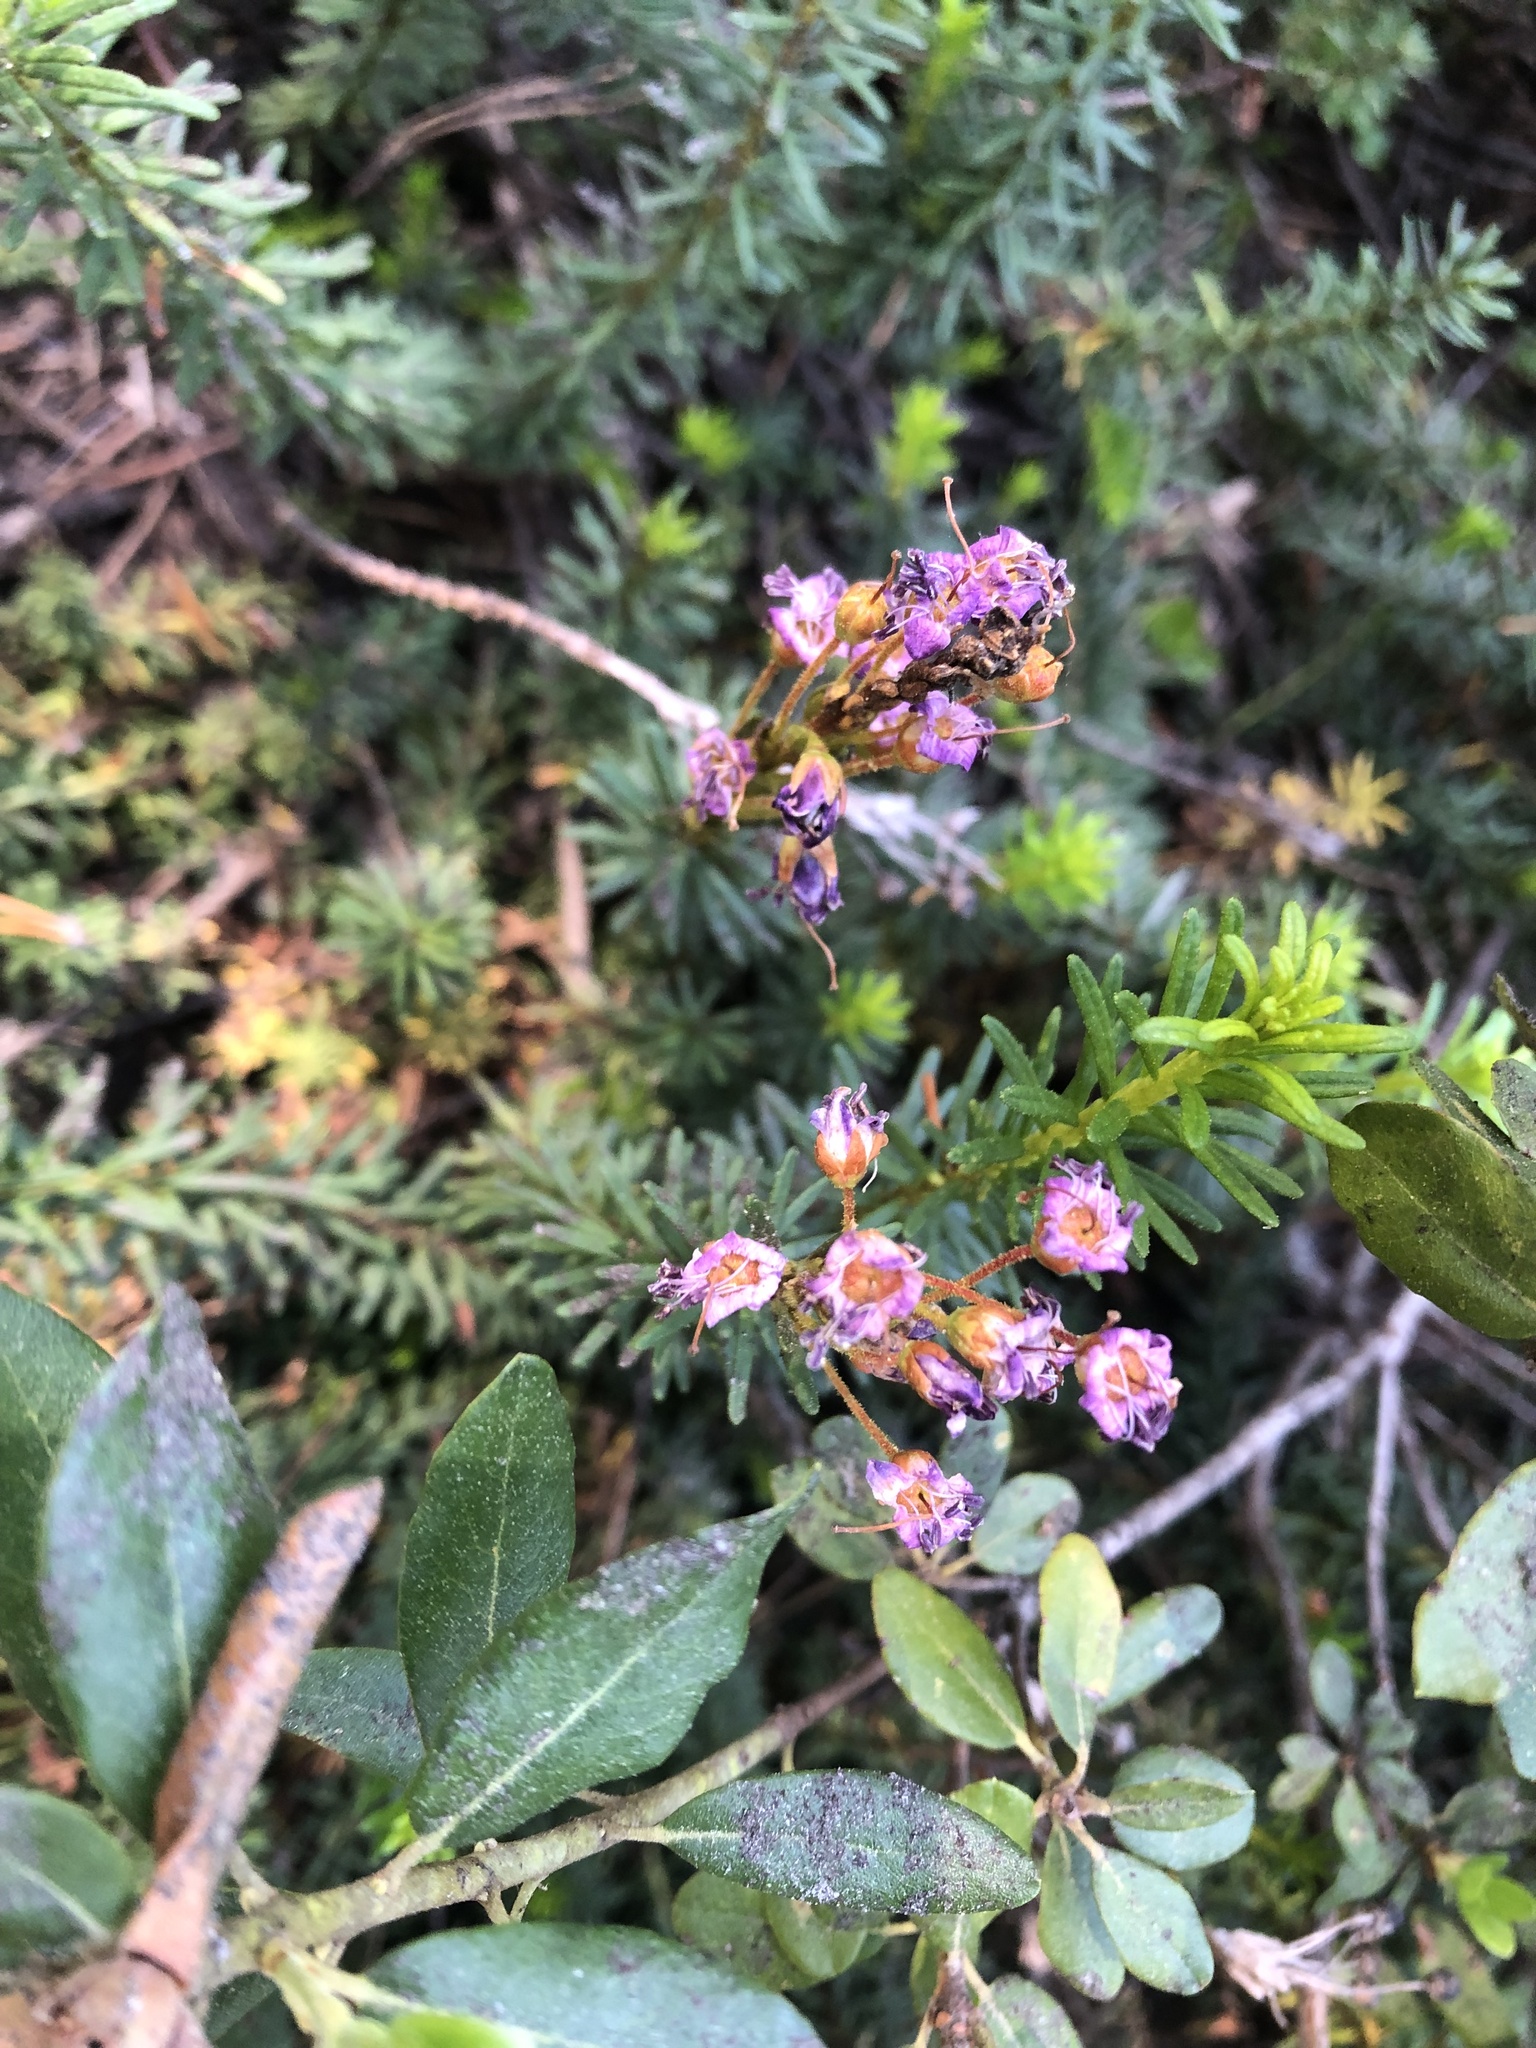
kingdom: Plantae
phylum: Tracheophyta
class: Magnoliopsida
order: Ericales
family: Ericaceae
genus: Phyllodoce
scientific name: Phyllodoce breweri
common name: Brewer's mountain-heather
